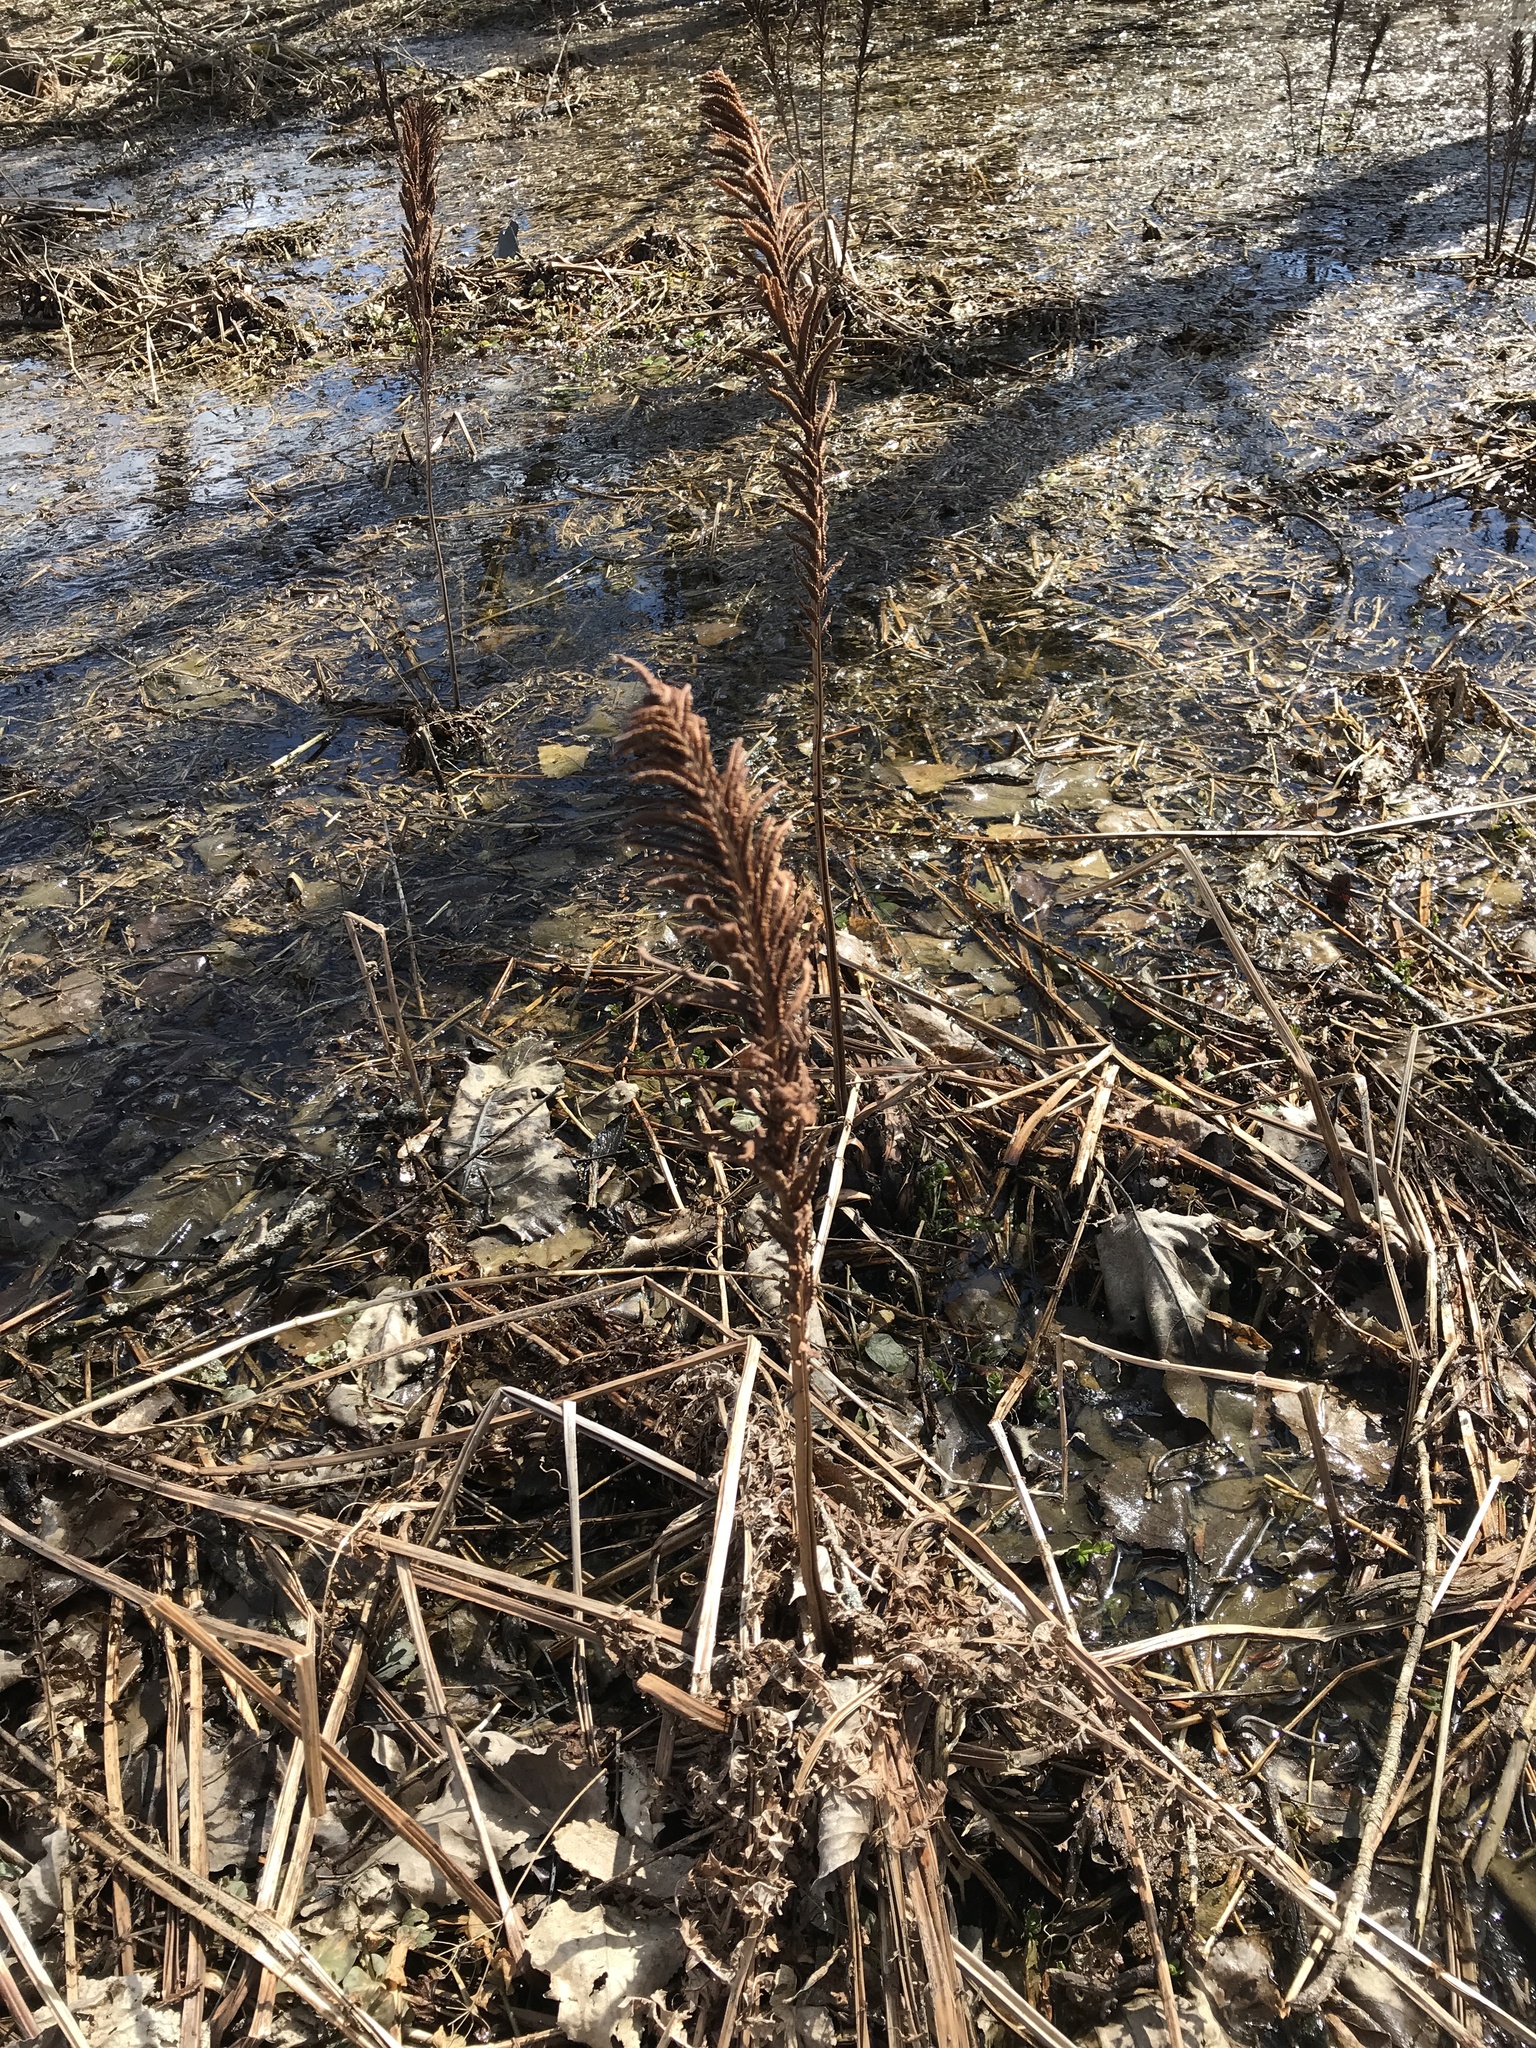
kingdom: Plantae
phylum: Tracheophyta
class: Polypodiopsida
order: Polypodiales
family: Onocleaceae
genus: Matteuccia
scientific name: Matteuccia struthiopteris
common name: Ostrich fern
